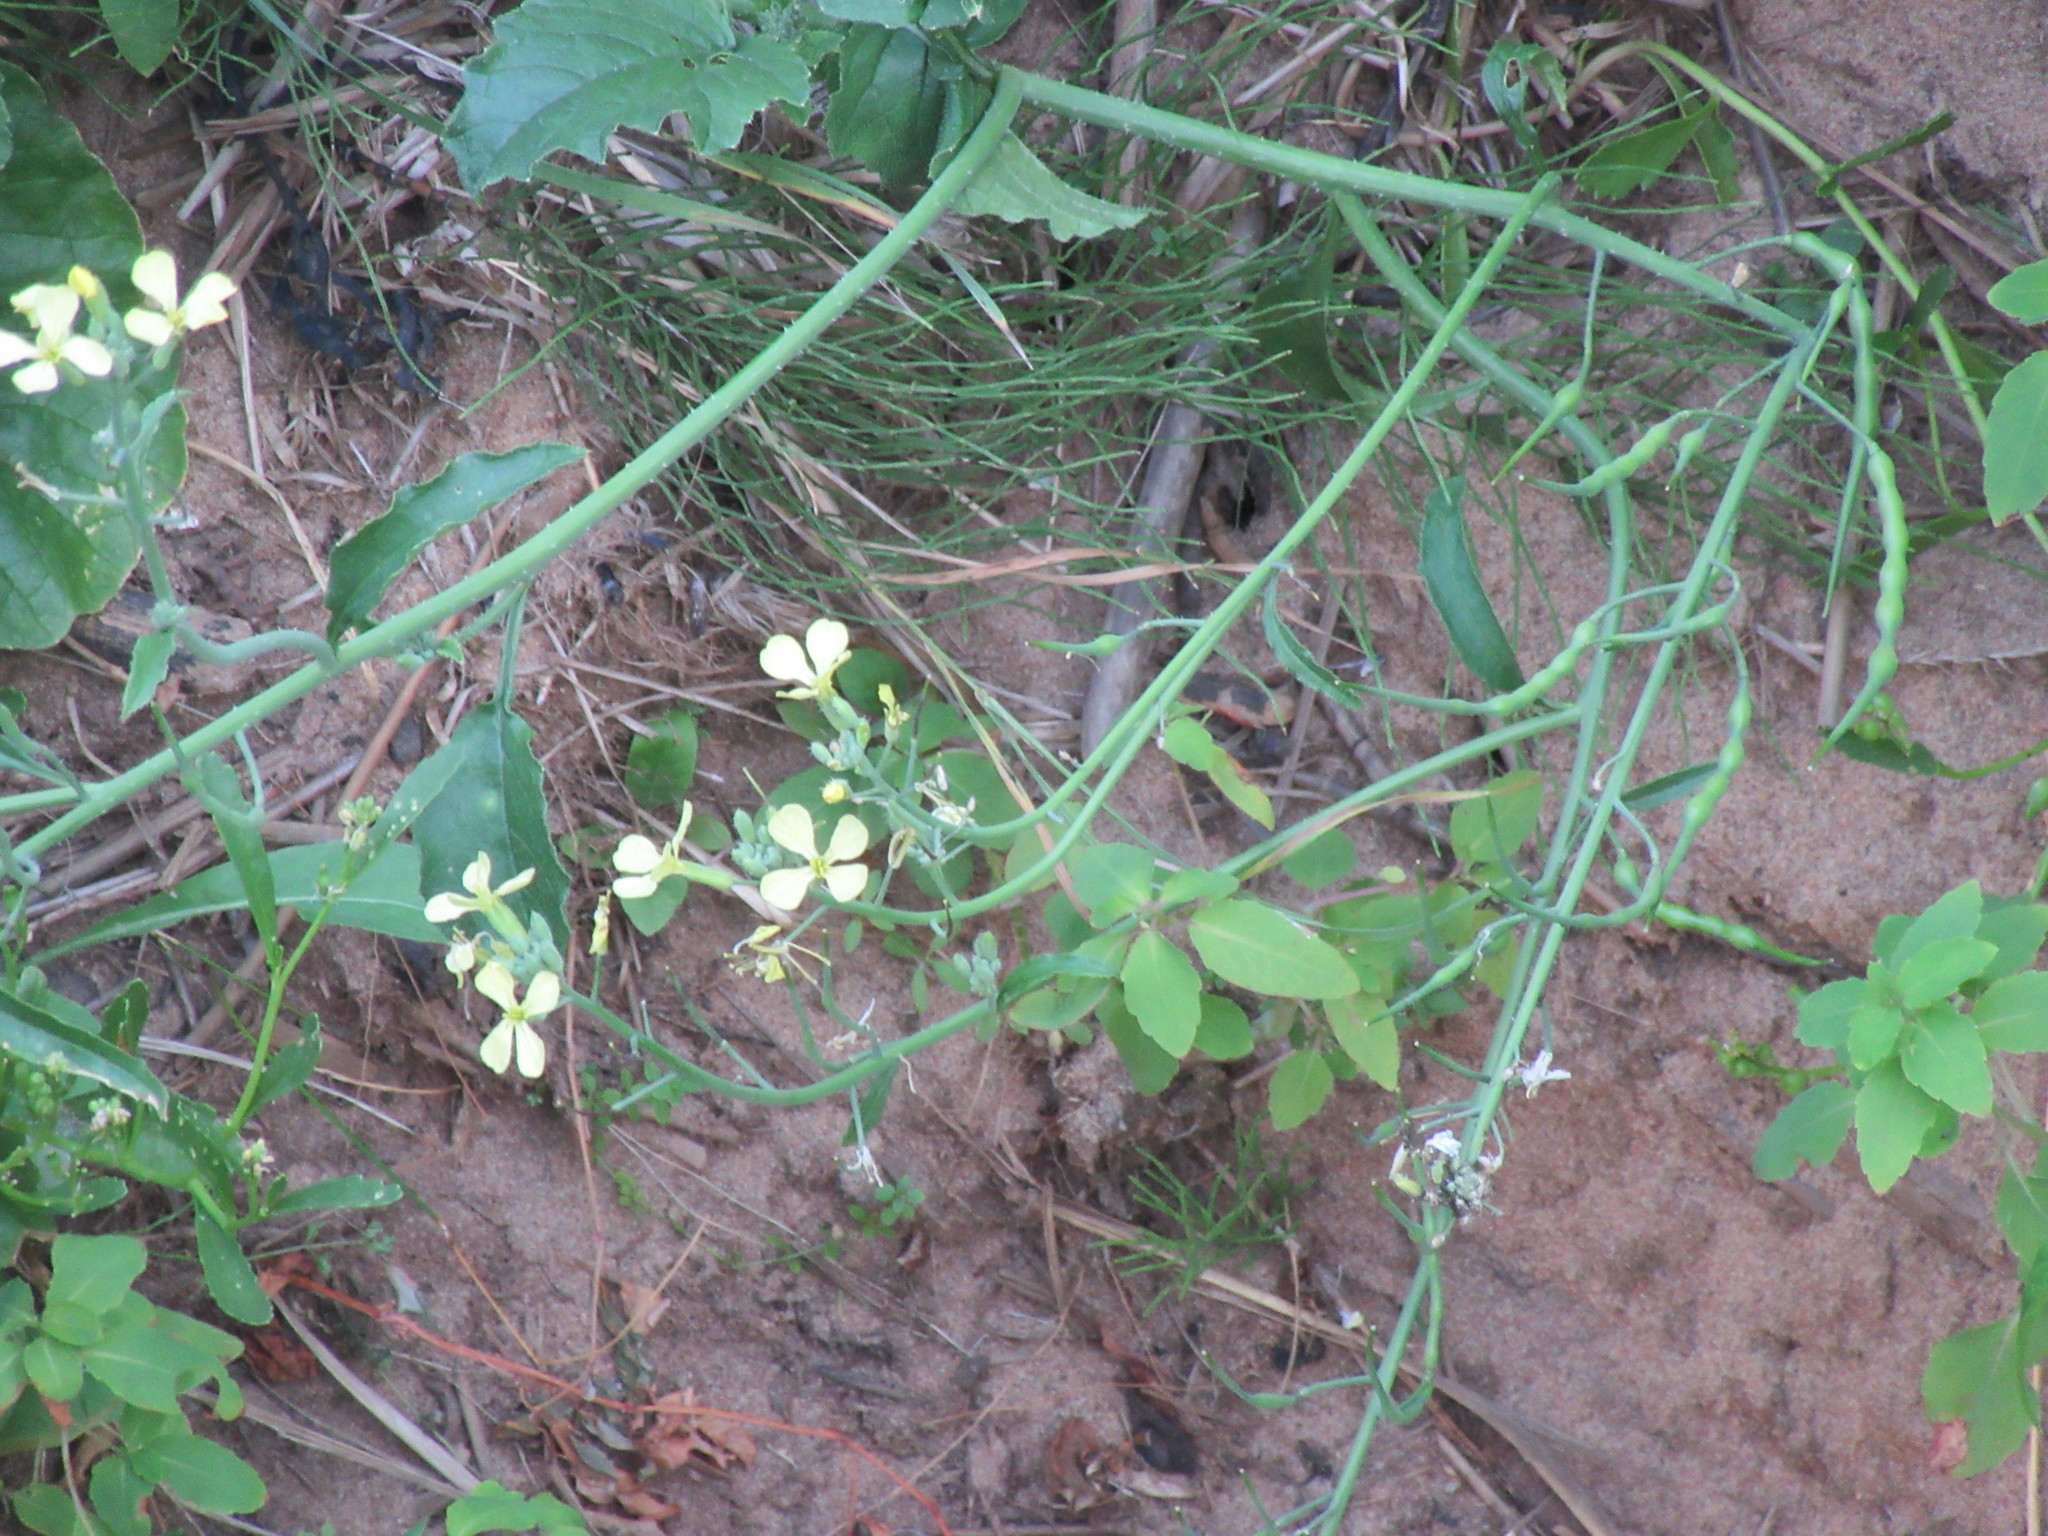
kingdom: Plantae
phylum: Tracheophyta
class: Magnoliopsida
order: Brassicales
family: Brassicaceae
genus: Raphanus
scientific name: Raphanus raphanistrum
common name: Wild radish
